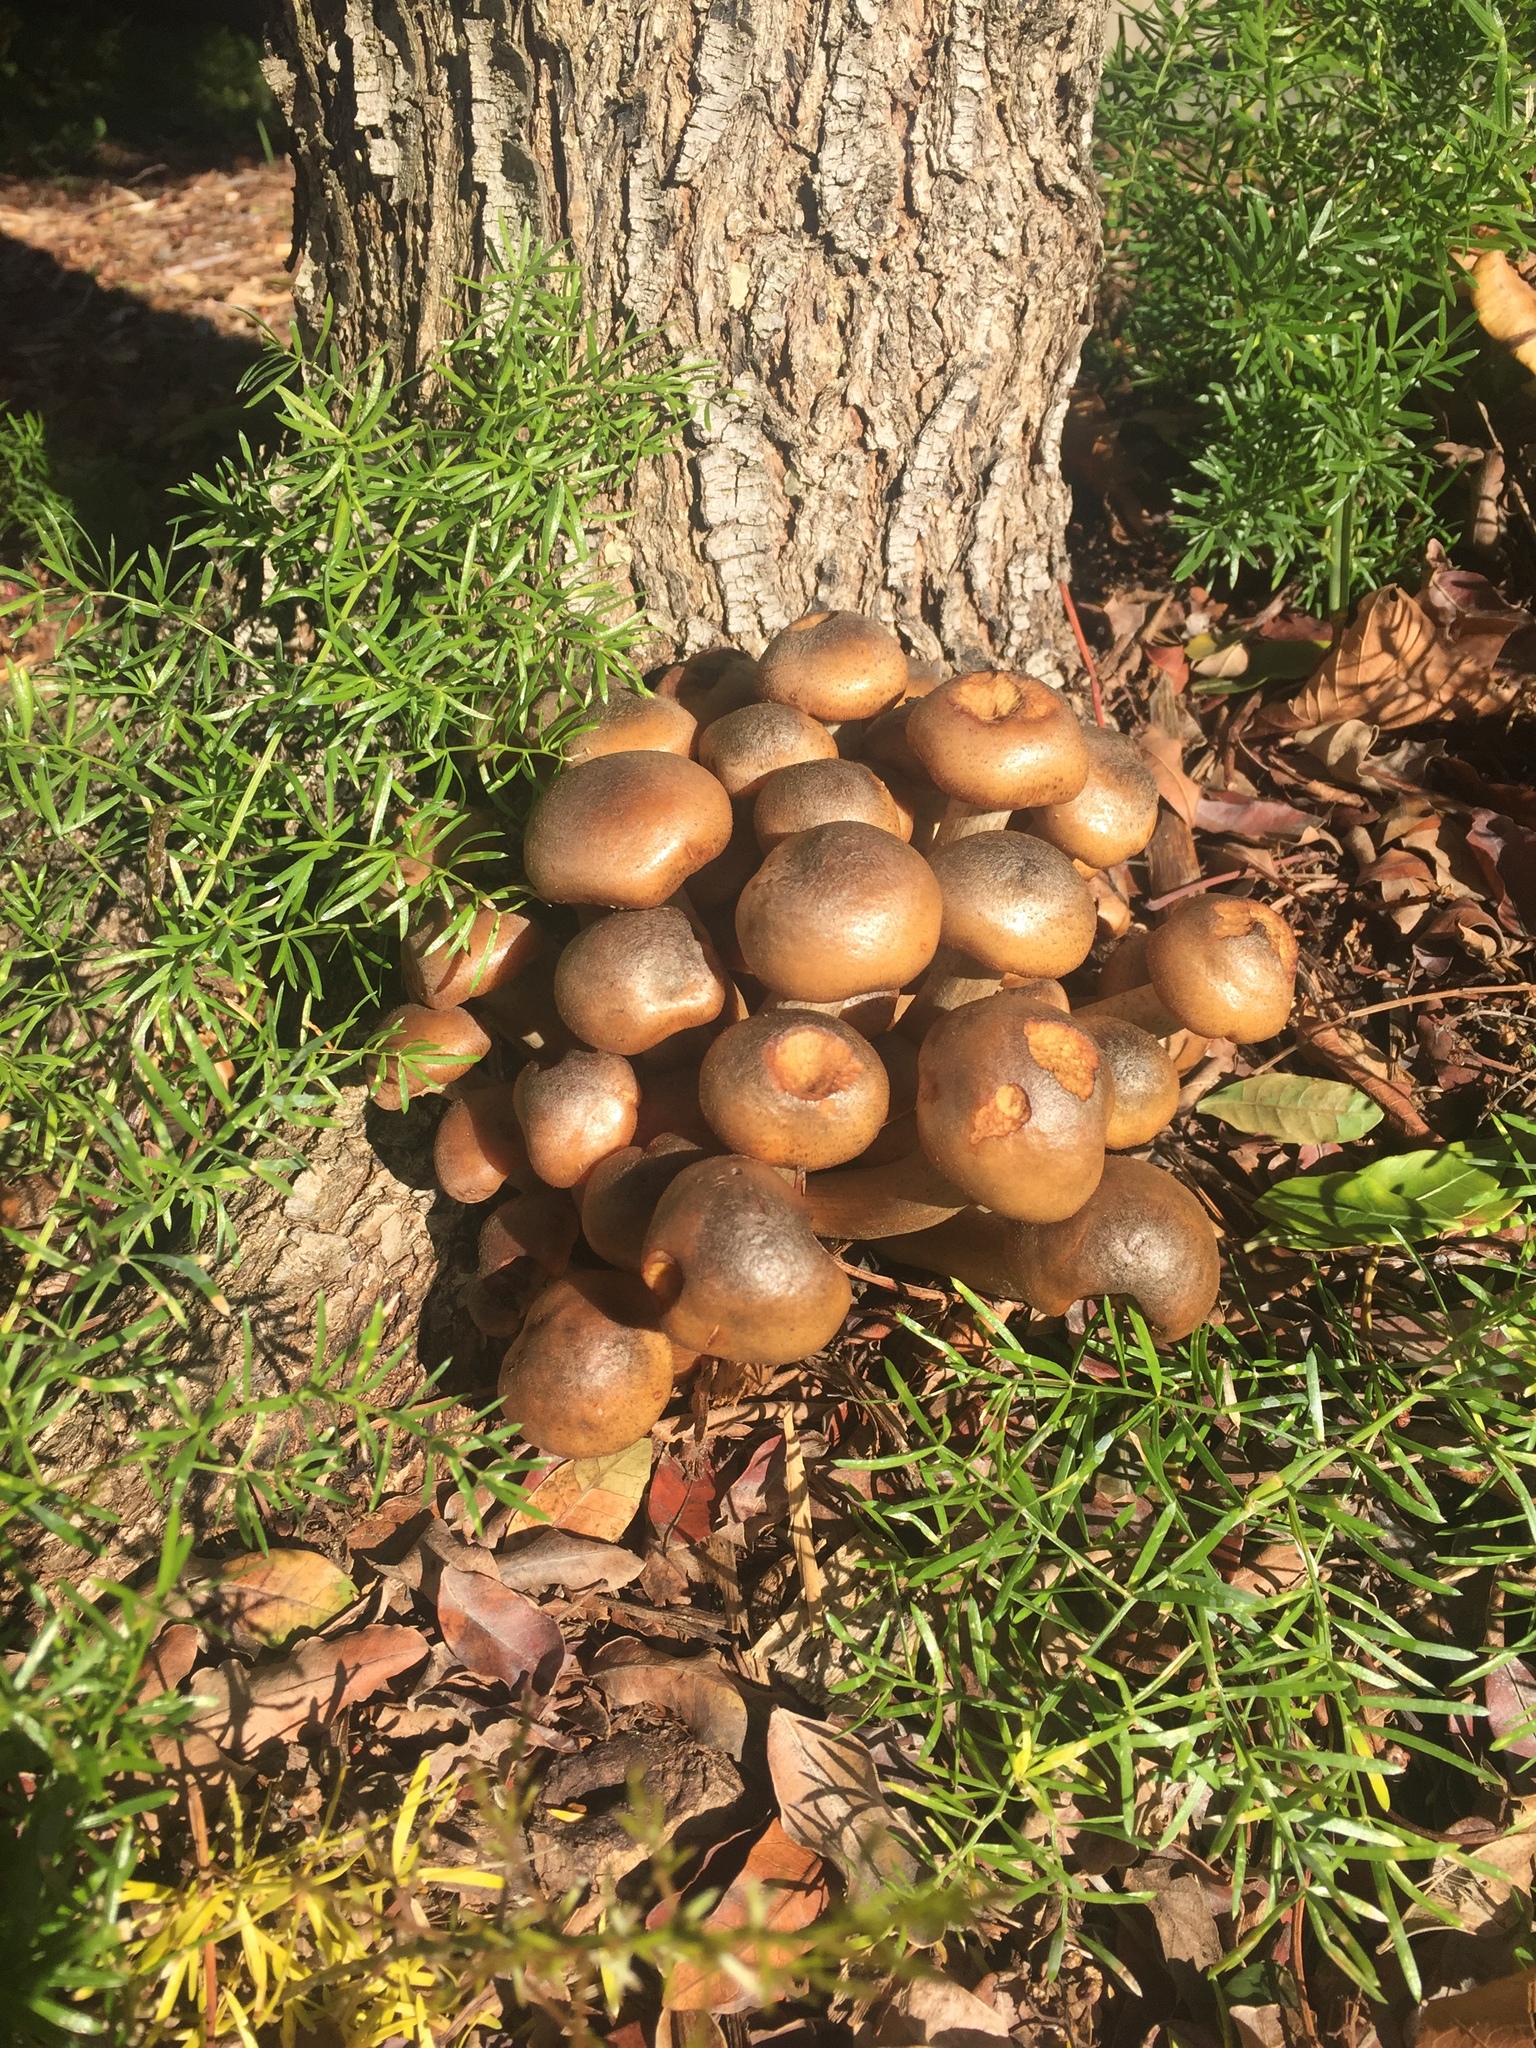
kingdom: Fungi
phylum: Basidiomycota
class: Agaricomycetes
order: Agaricales
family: Physalacriaceae
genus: Armillaria
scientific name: Armillaria mellea
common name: Honey fungus
